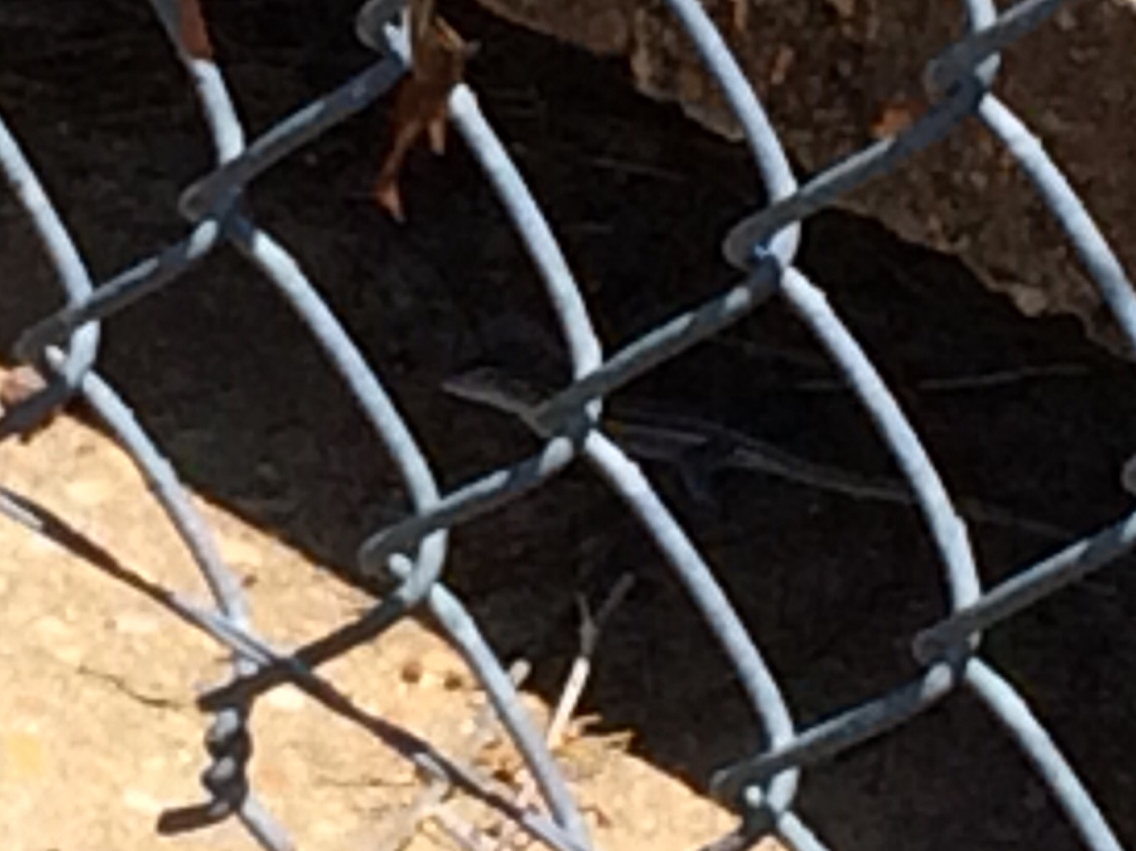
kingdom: Animalia
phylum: Chordata
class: Squamata
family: Teiidae
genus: Aspidoscelis
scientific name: Aspidoscelis sexlineatus
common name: Six-lined racerunner
